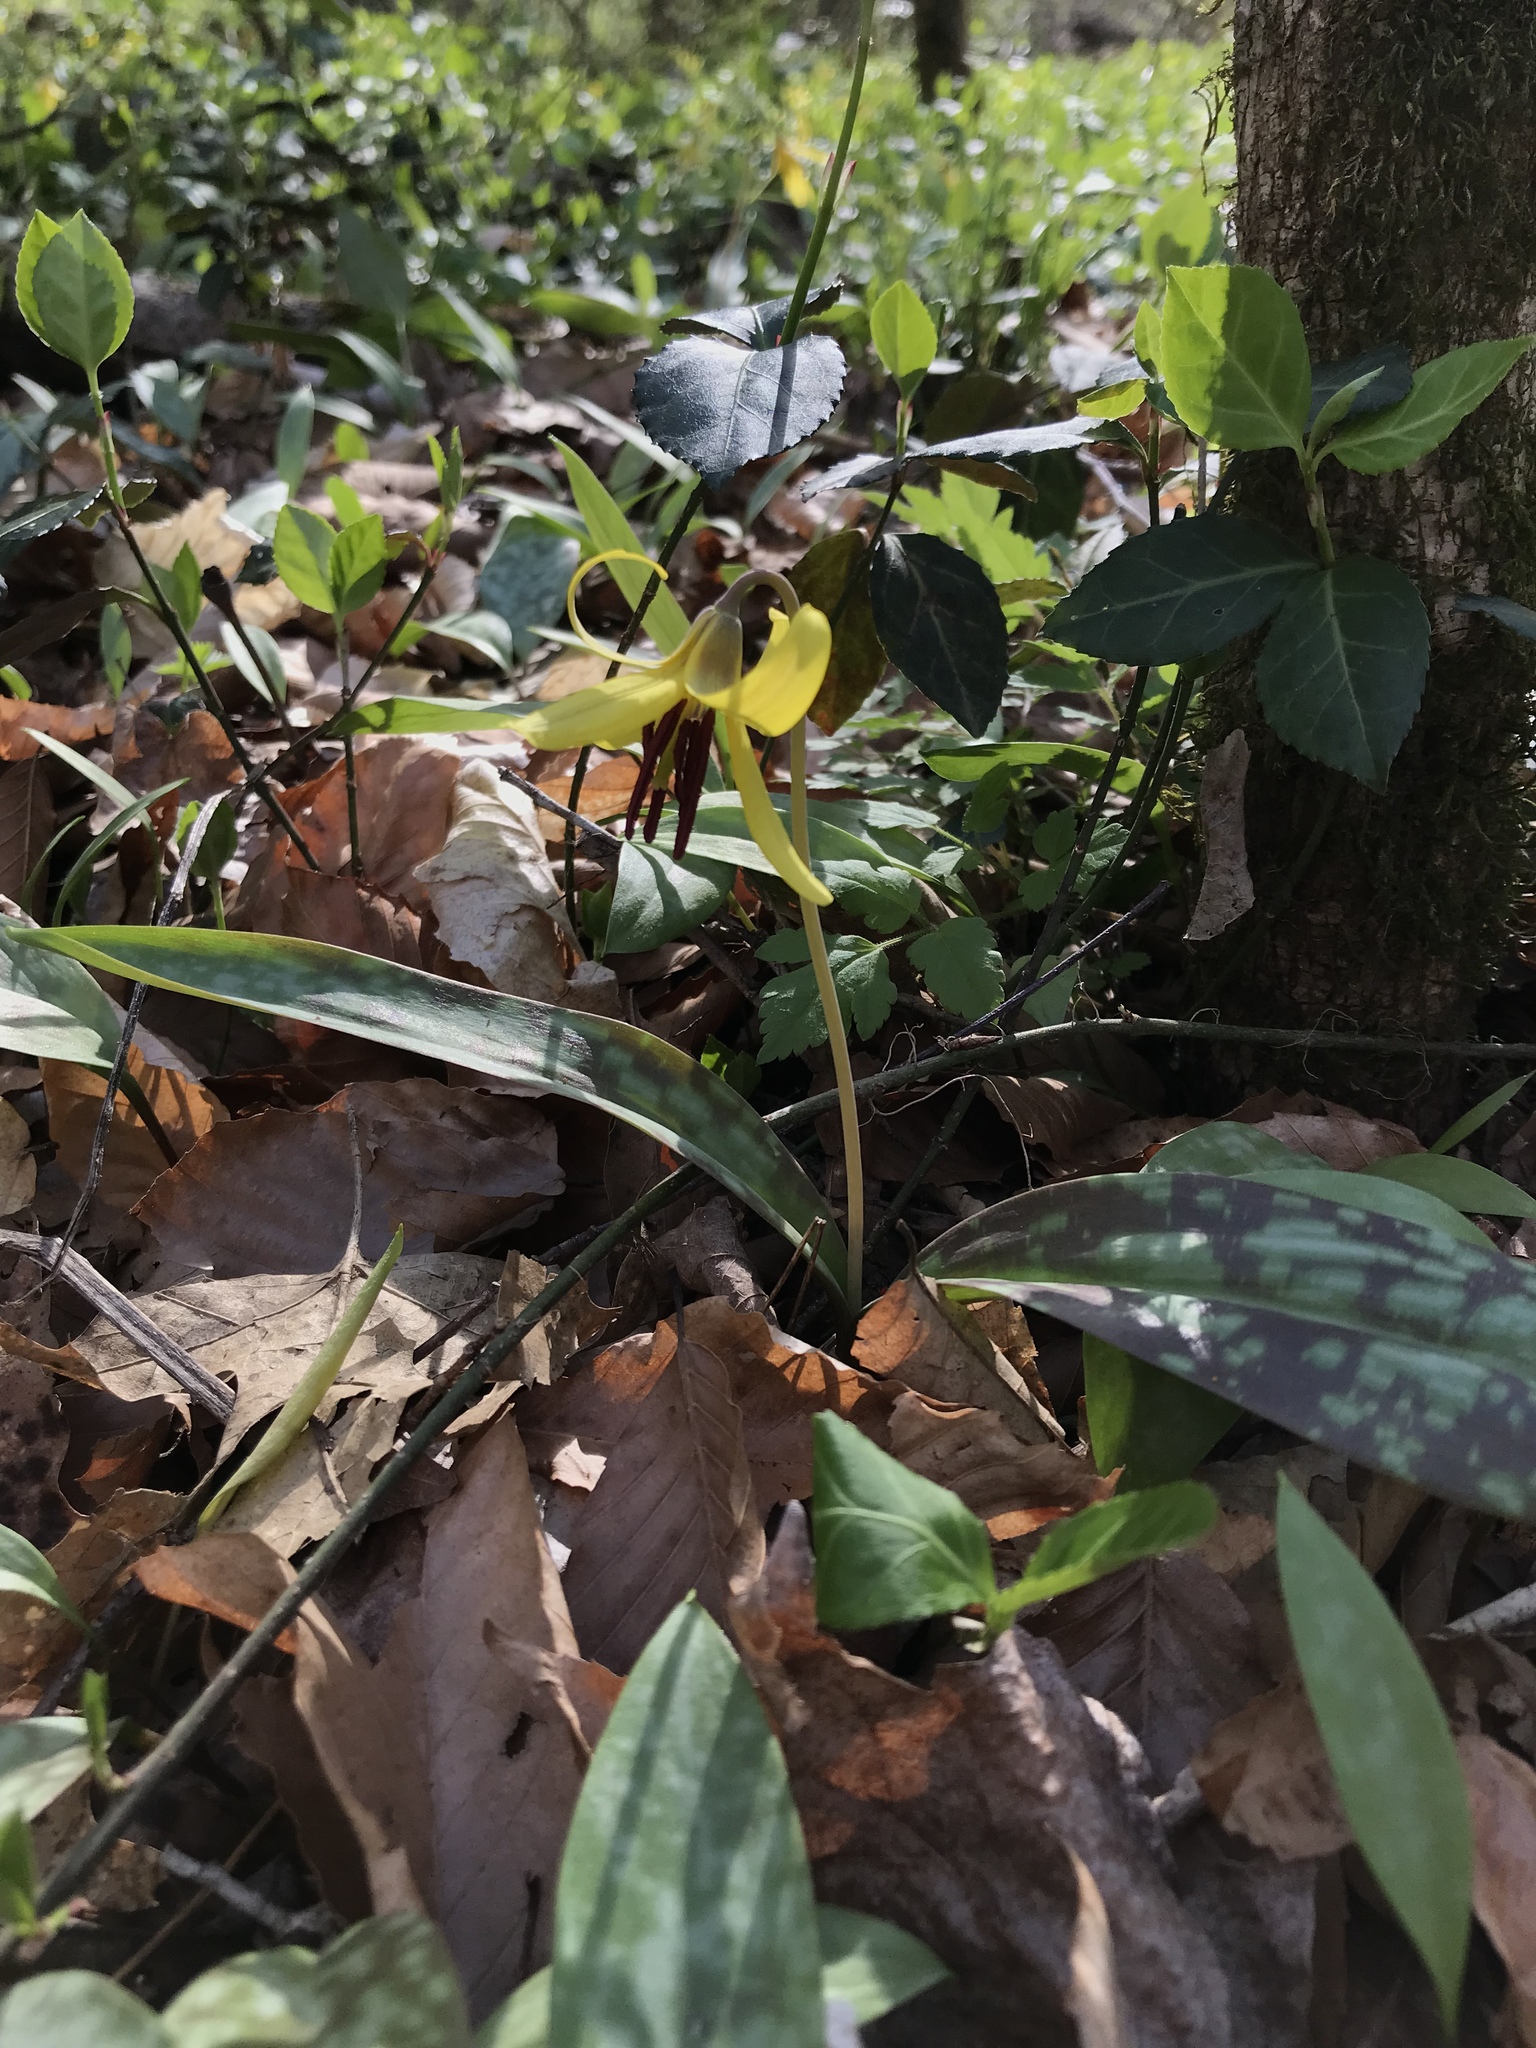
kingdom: Plantae
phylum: Tracheophyta
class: Liliopsida
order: Liliales
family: Liliaceae
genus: Erythronium
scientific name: Erythronium americanum
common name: Yellow adder's-tongue
